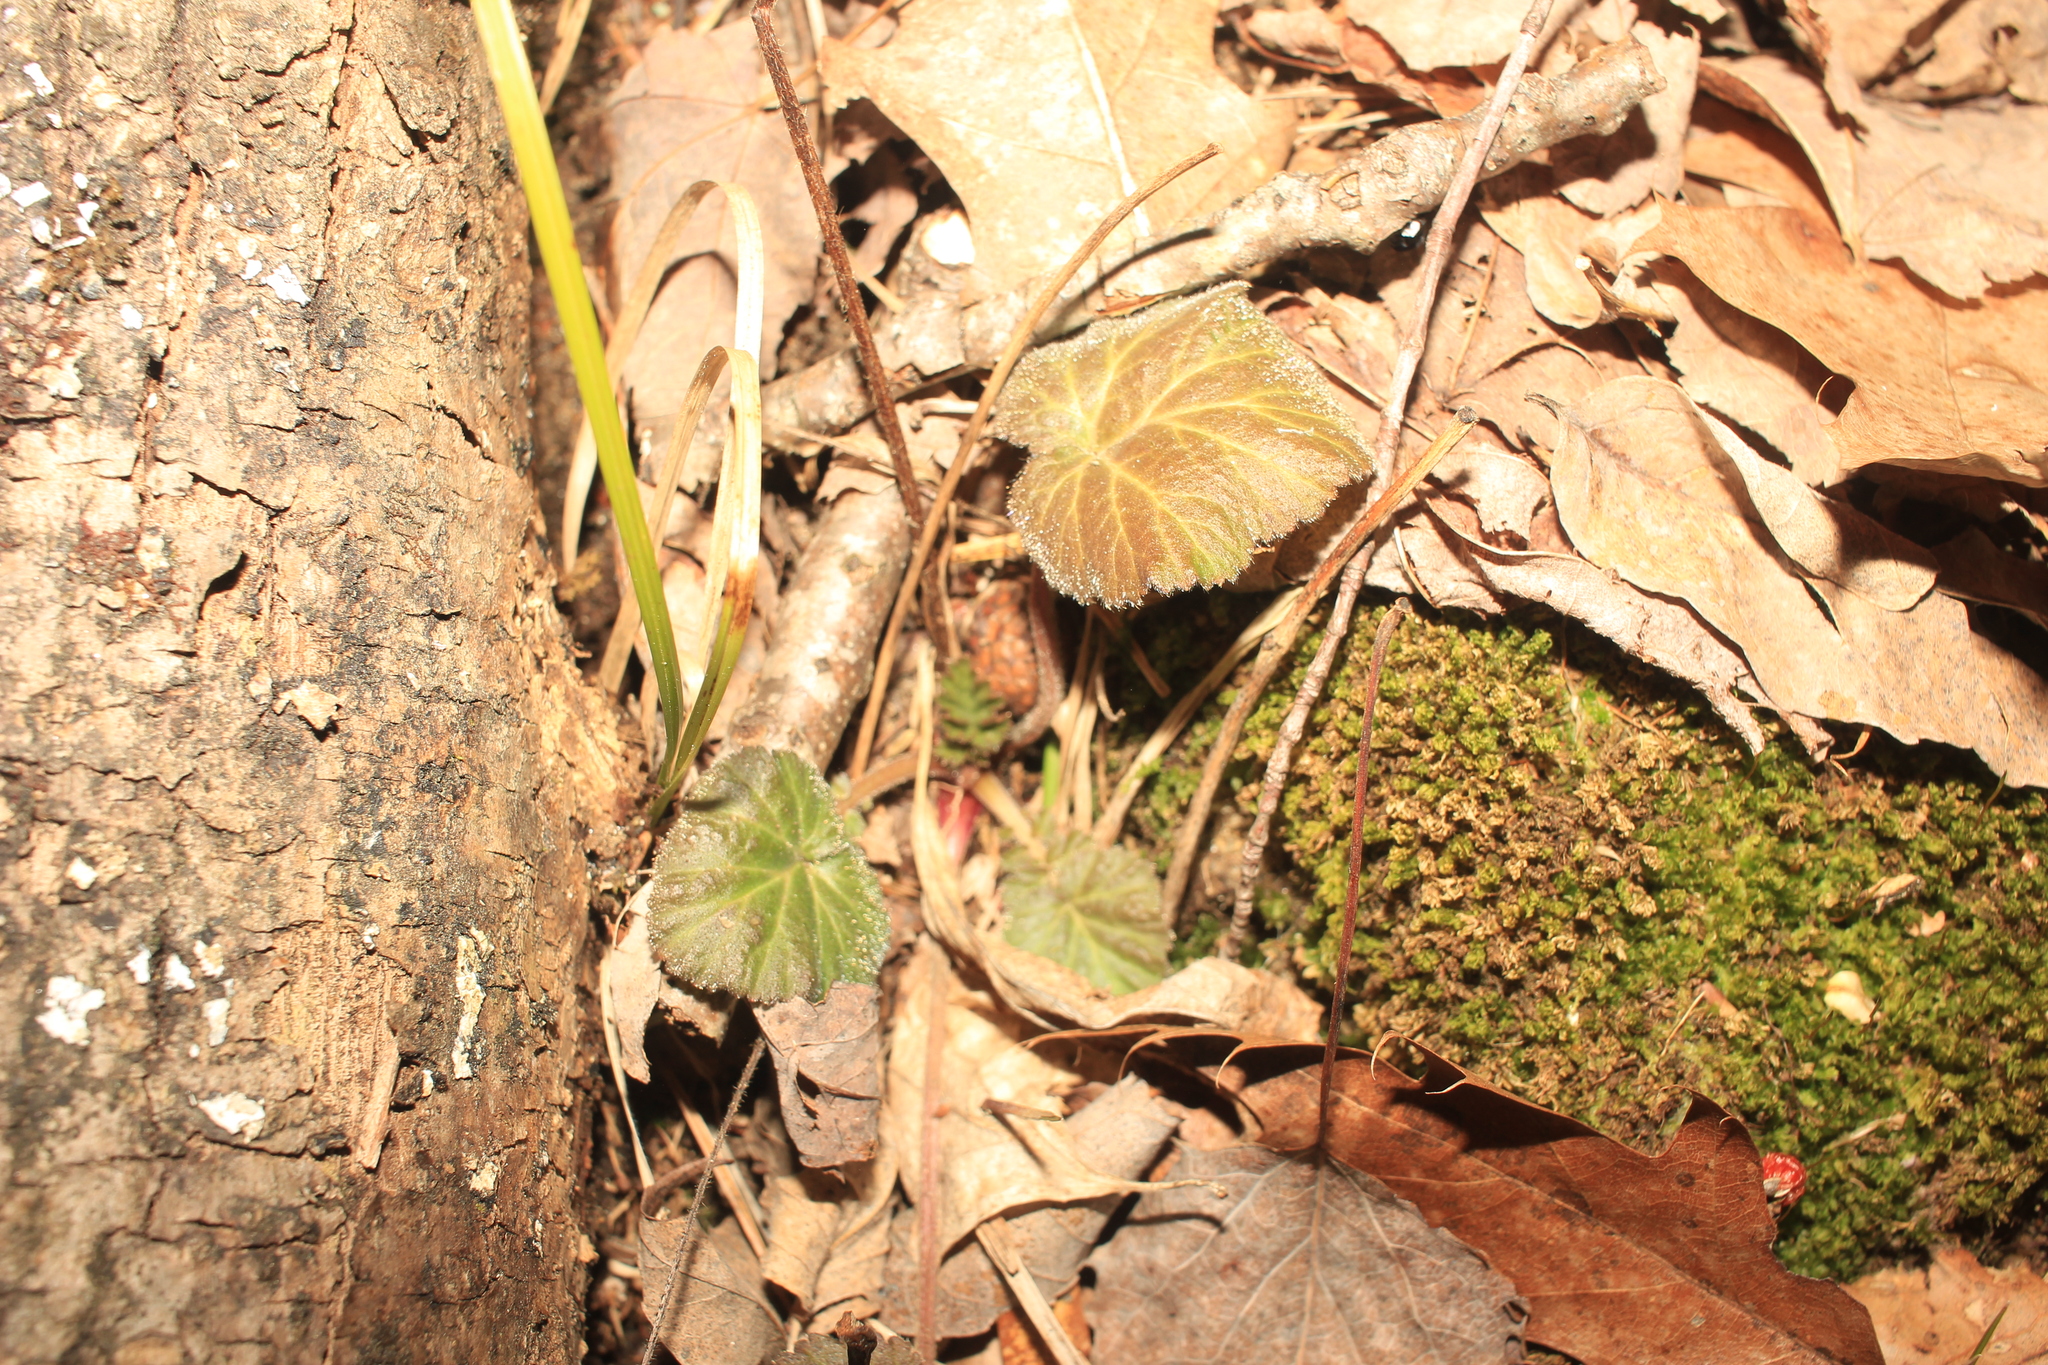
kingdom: Plantae
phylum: Tracheophyta
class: Magnoliopsida
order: Rosales
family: Rosaceae
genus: Geum
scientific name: Geum canadense
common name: White avens
